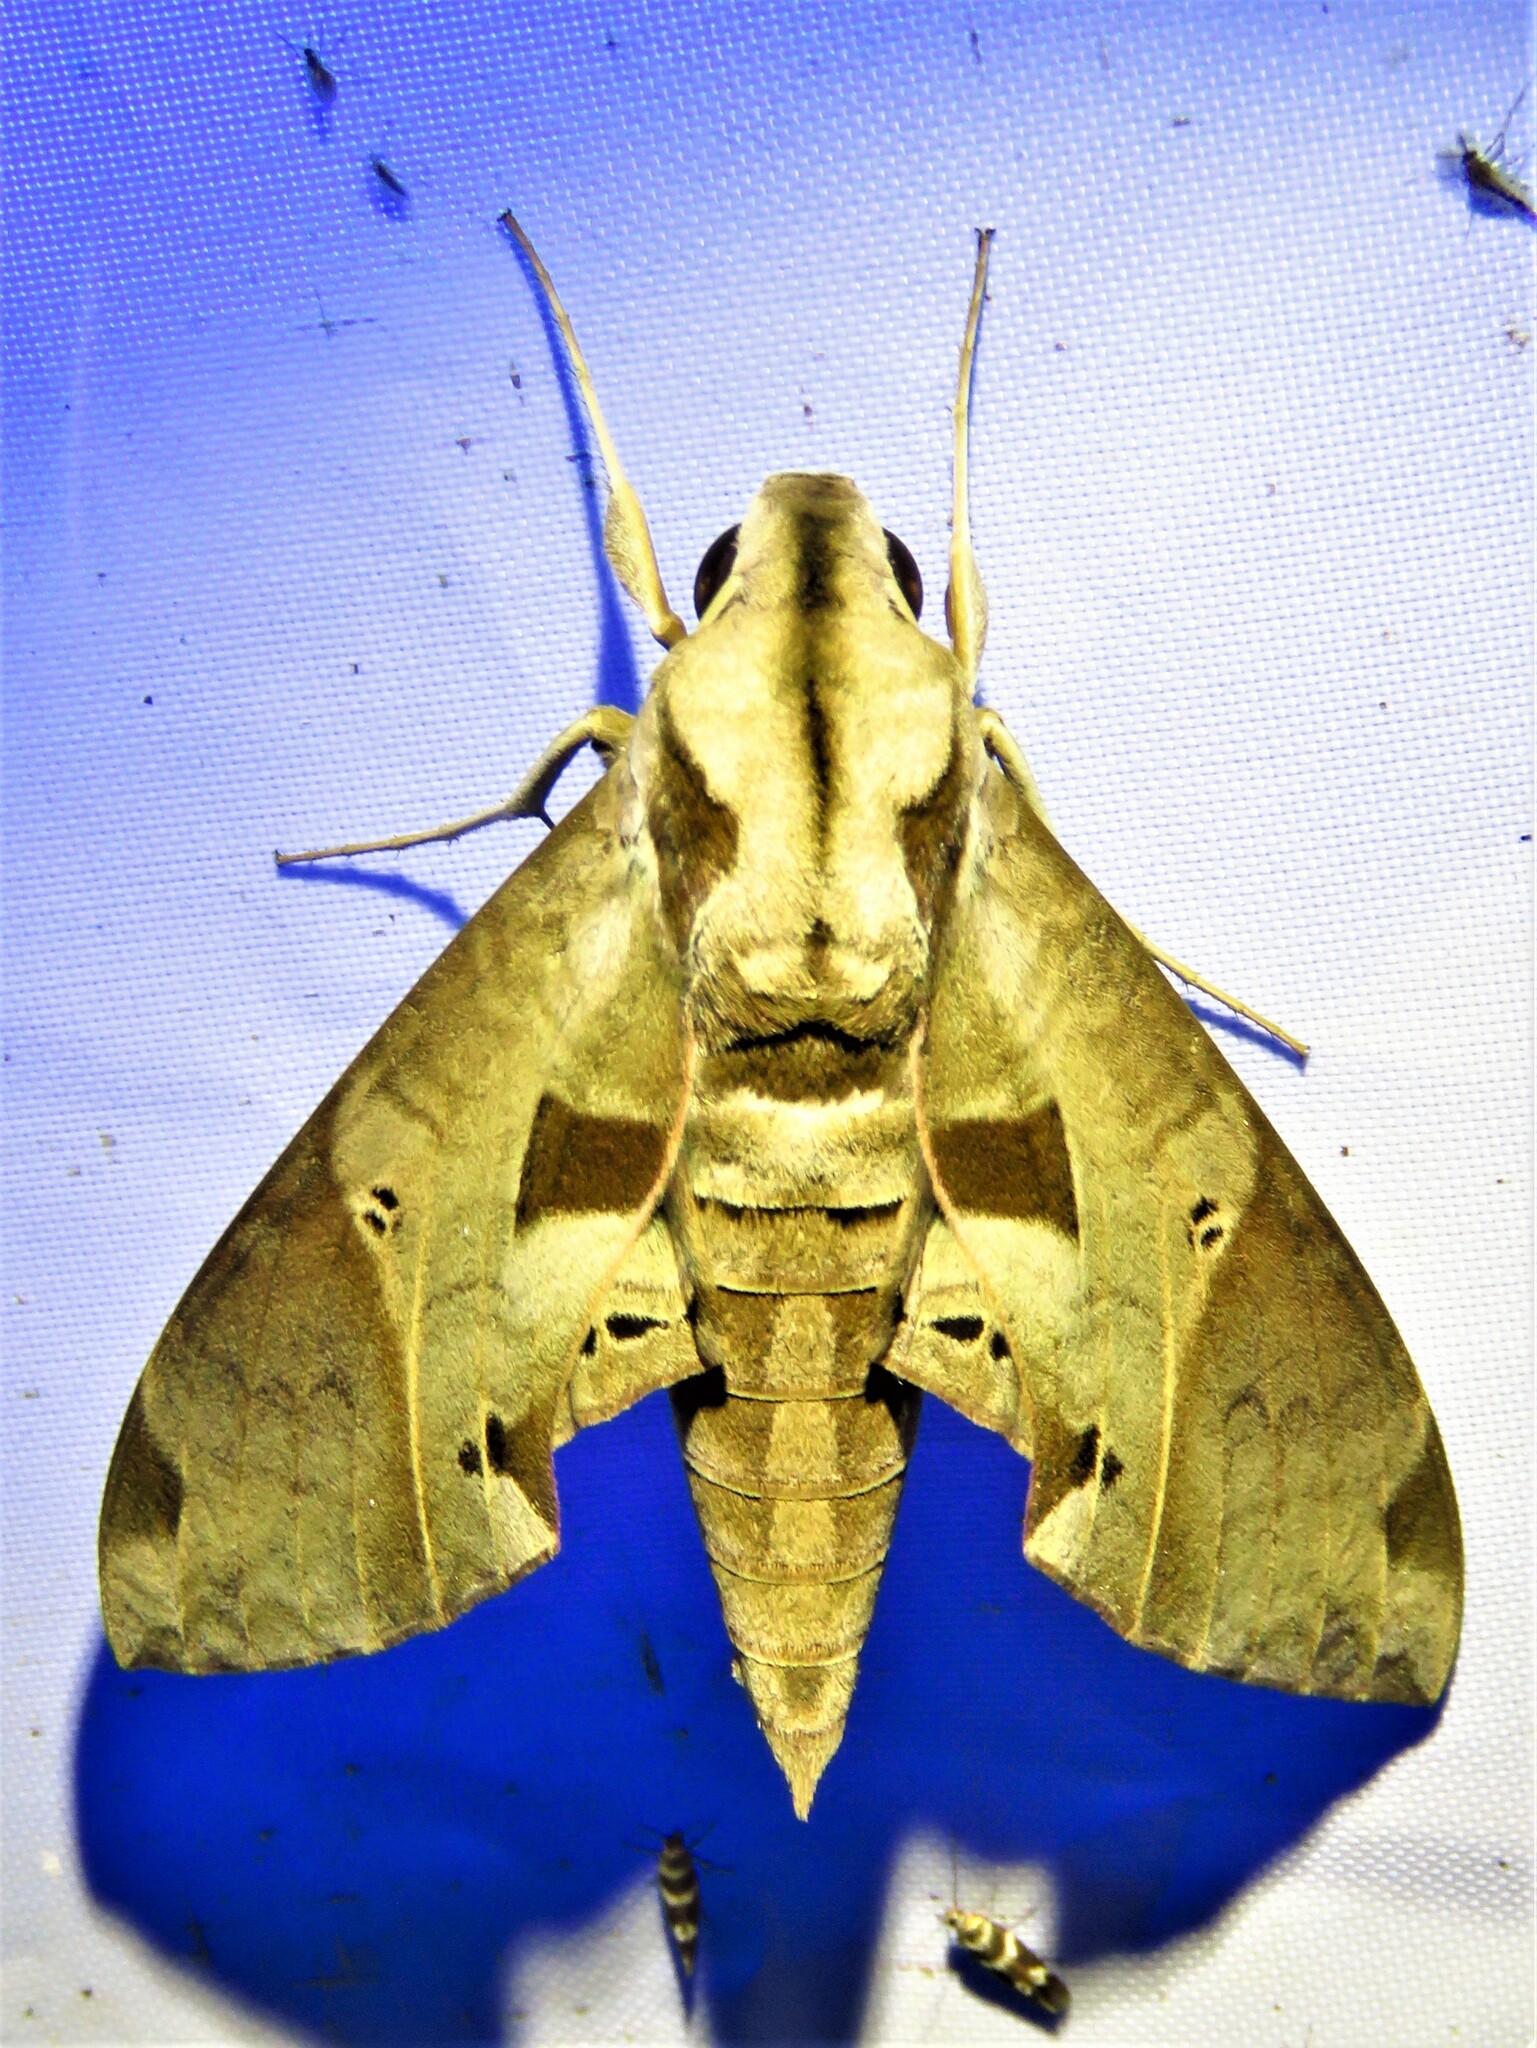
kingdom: Animalia
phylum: Arthropoda
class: Insecta
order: Lepidoptera
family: Sphingidae
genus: Eumorpha
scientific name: Eumorpha satellitia
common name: Satellite sphinx
